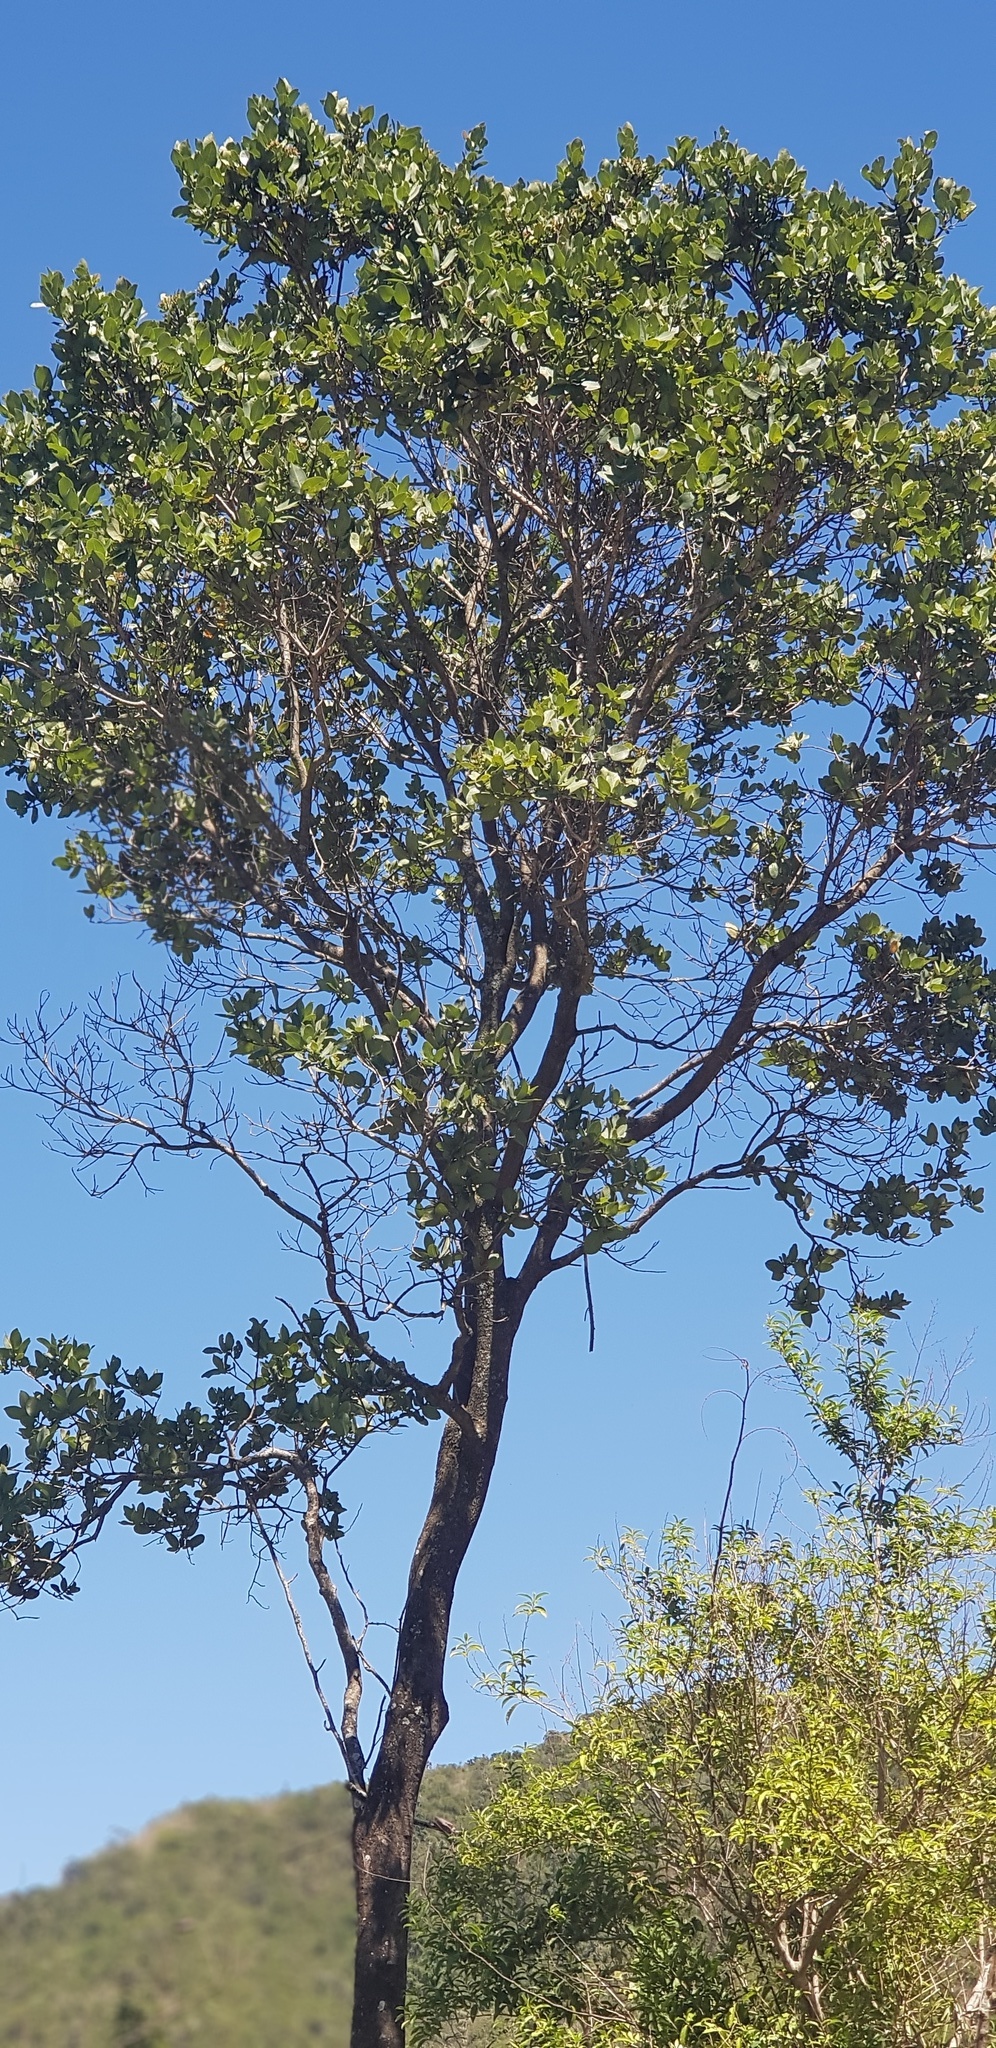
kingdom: Plantae
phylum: Tracheophyta
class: Magnoliopsida
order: Myrtales
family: Myrtaceae
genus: Syzygium
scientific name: Syzygium cordatum
